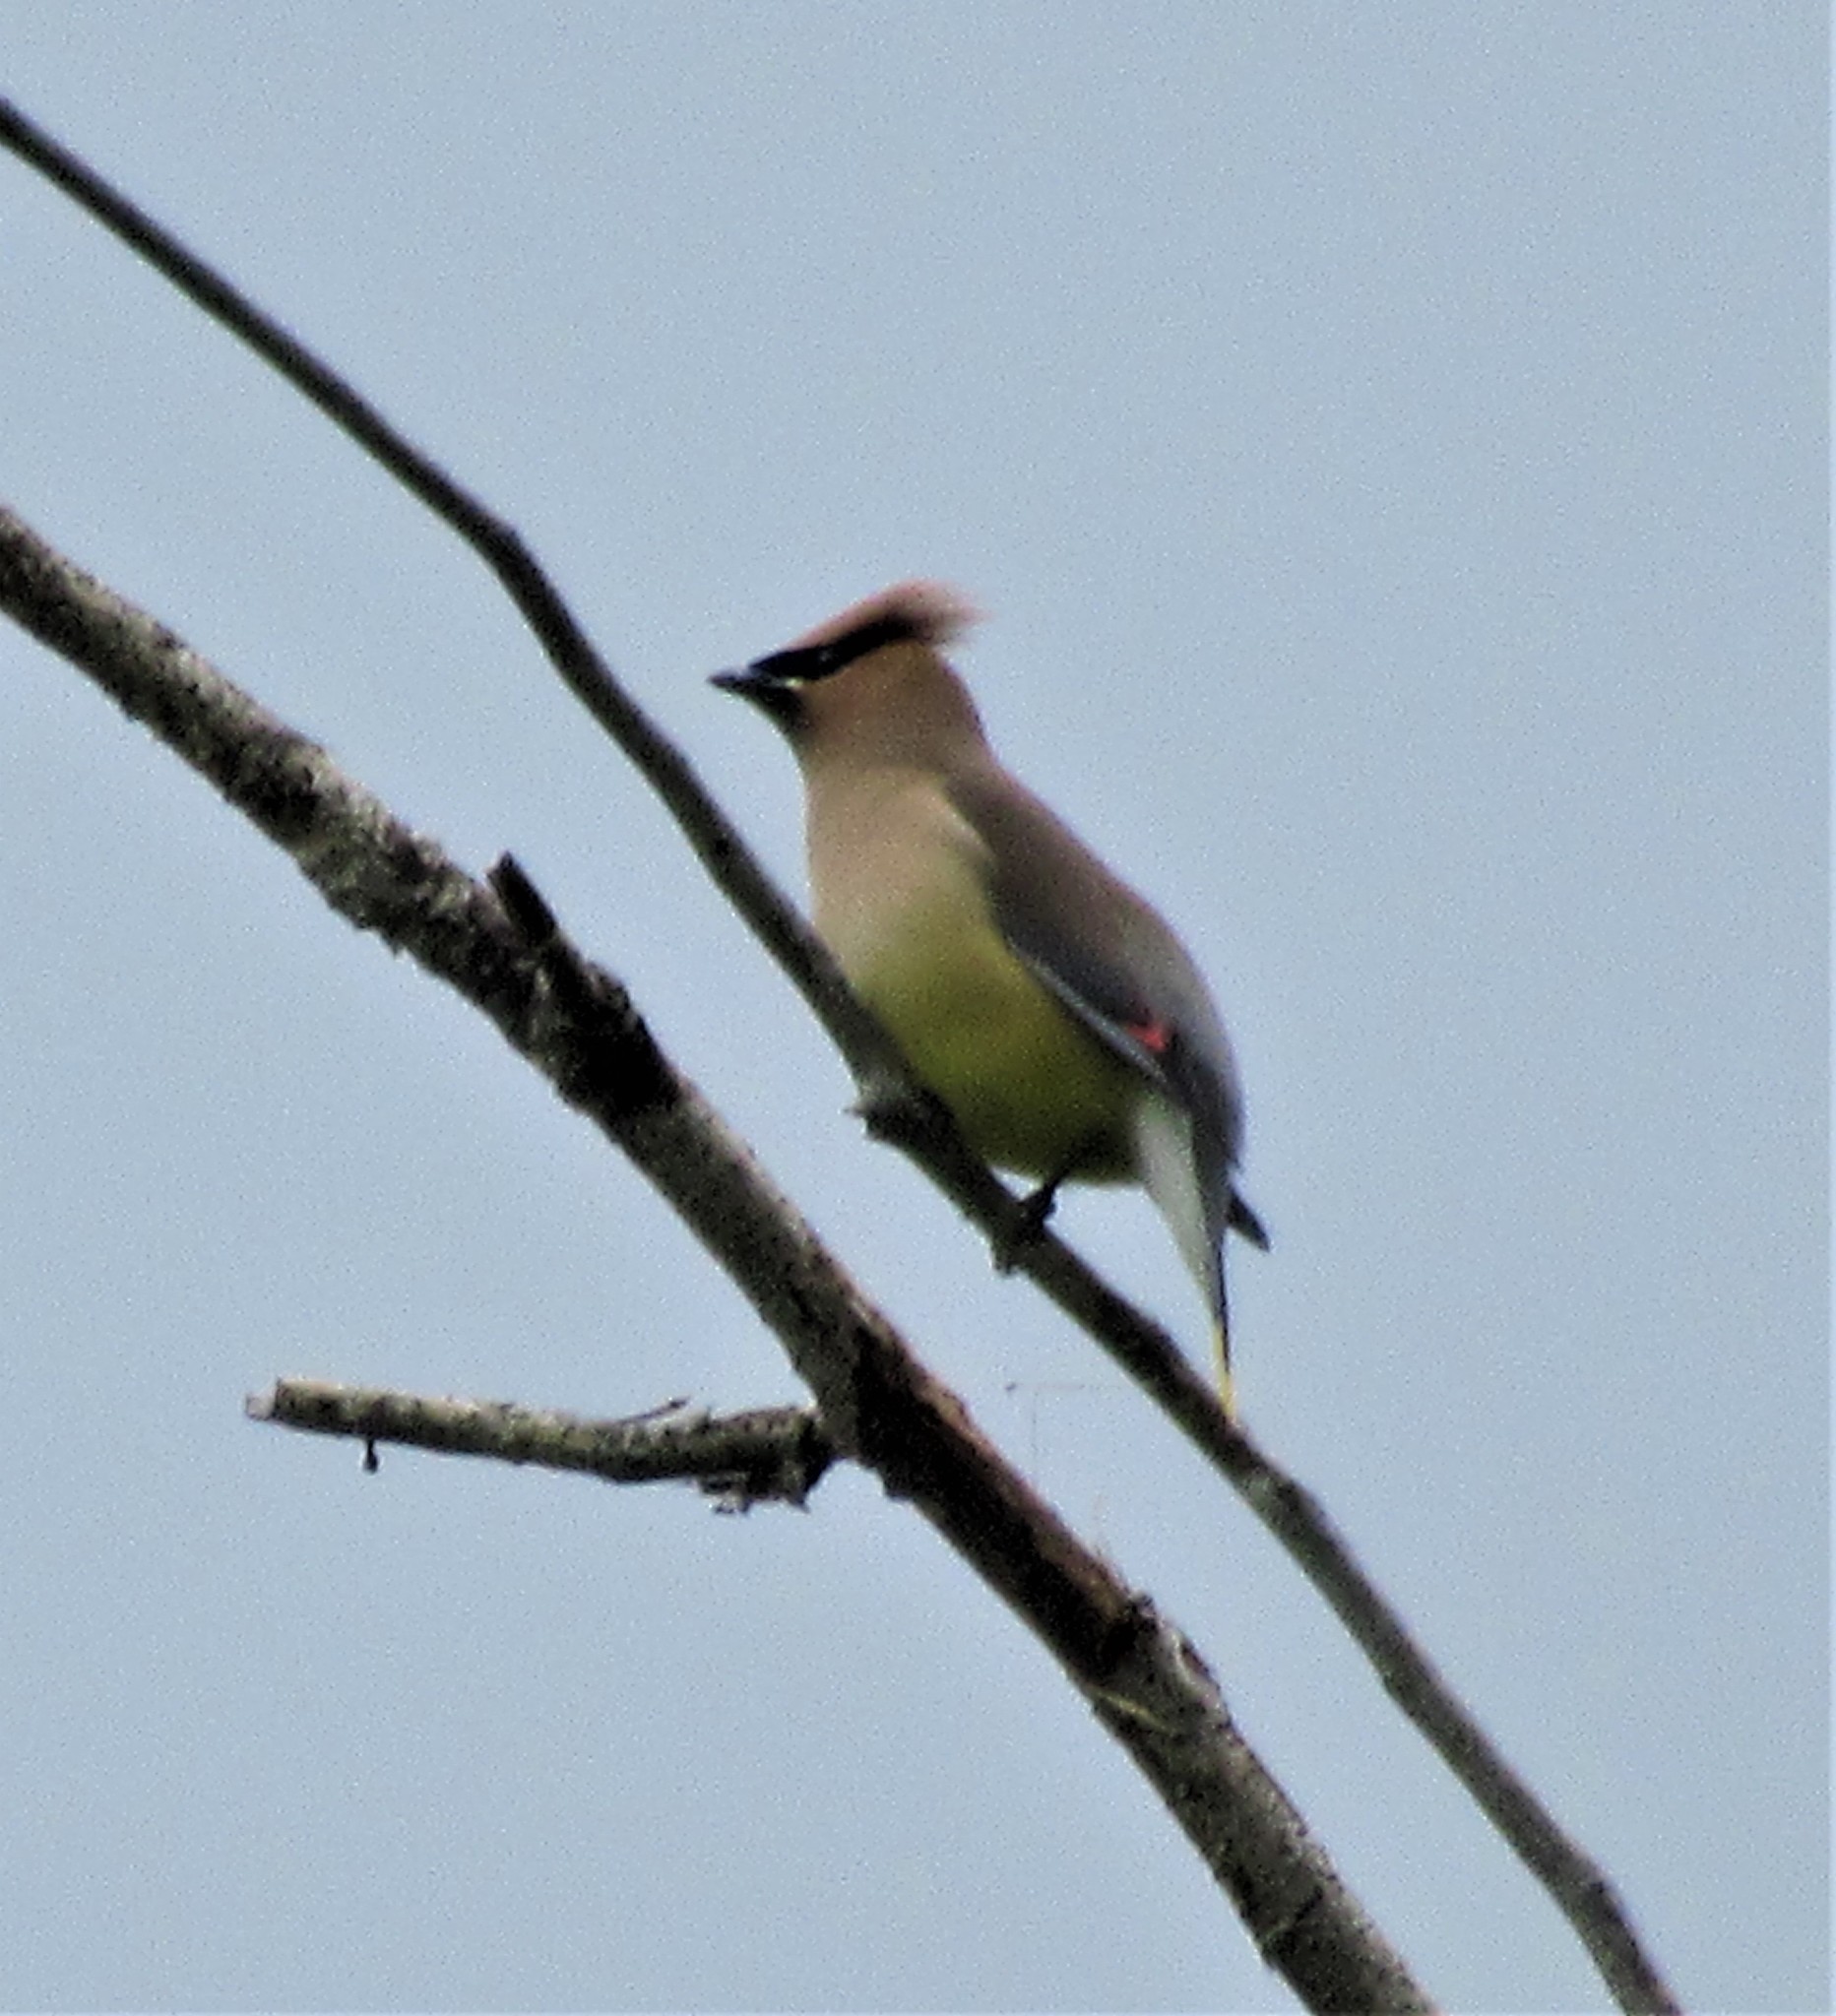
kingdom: Animalia
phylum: Chordata
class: Aves
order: Passeriformes
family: Bombycillidae
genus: Bombycilla
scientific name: Bombycilla cedrorum
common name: Cedar waxwing
